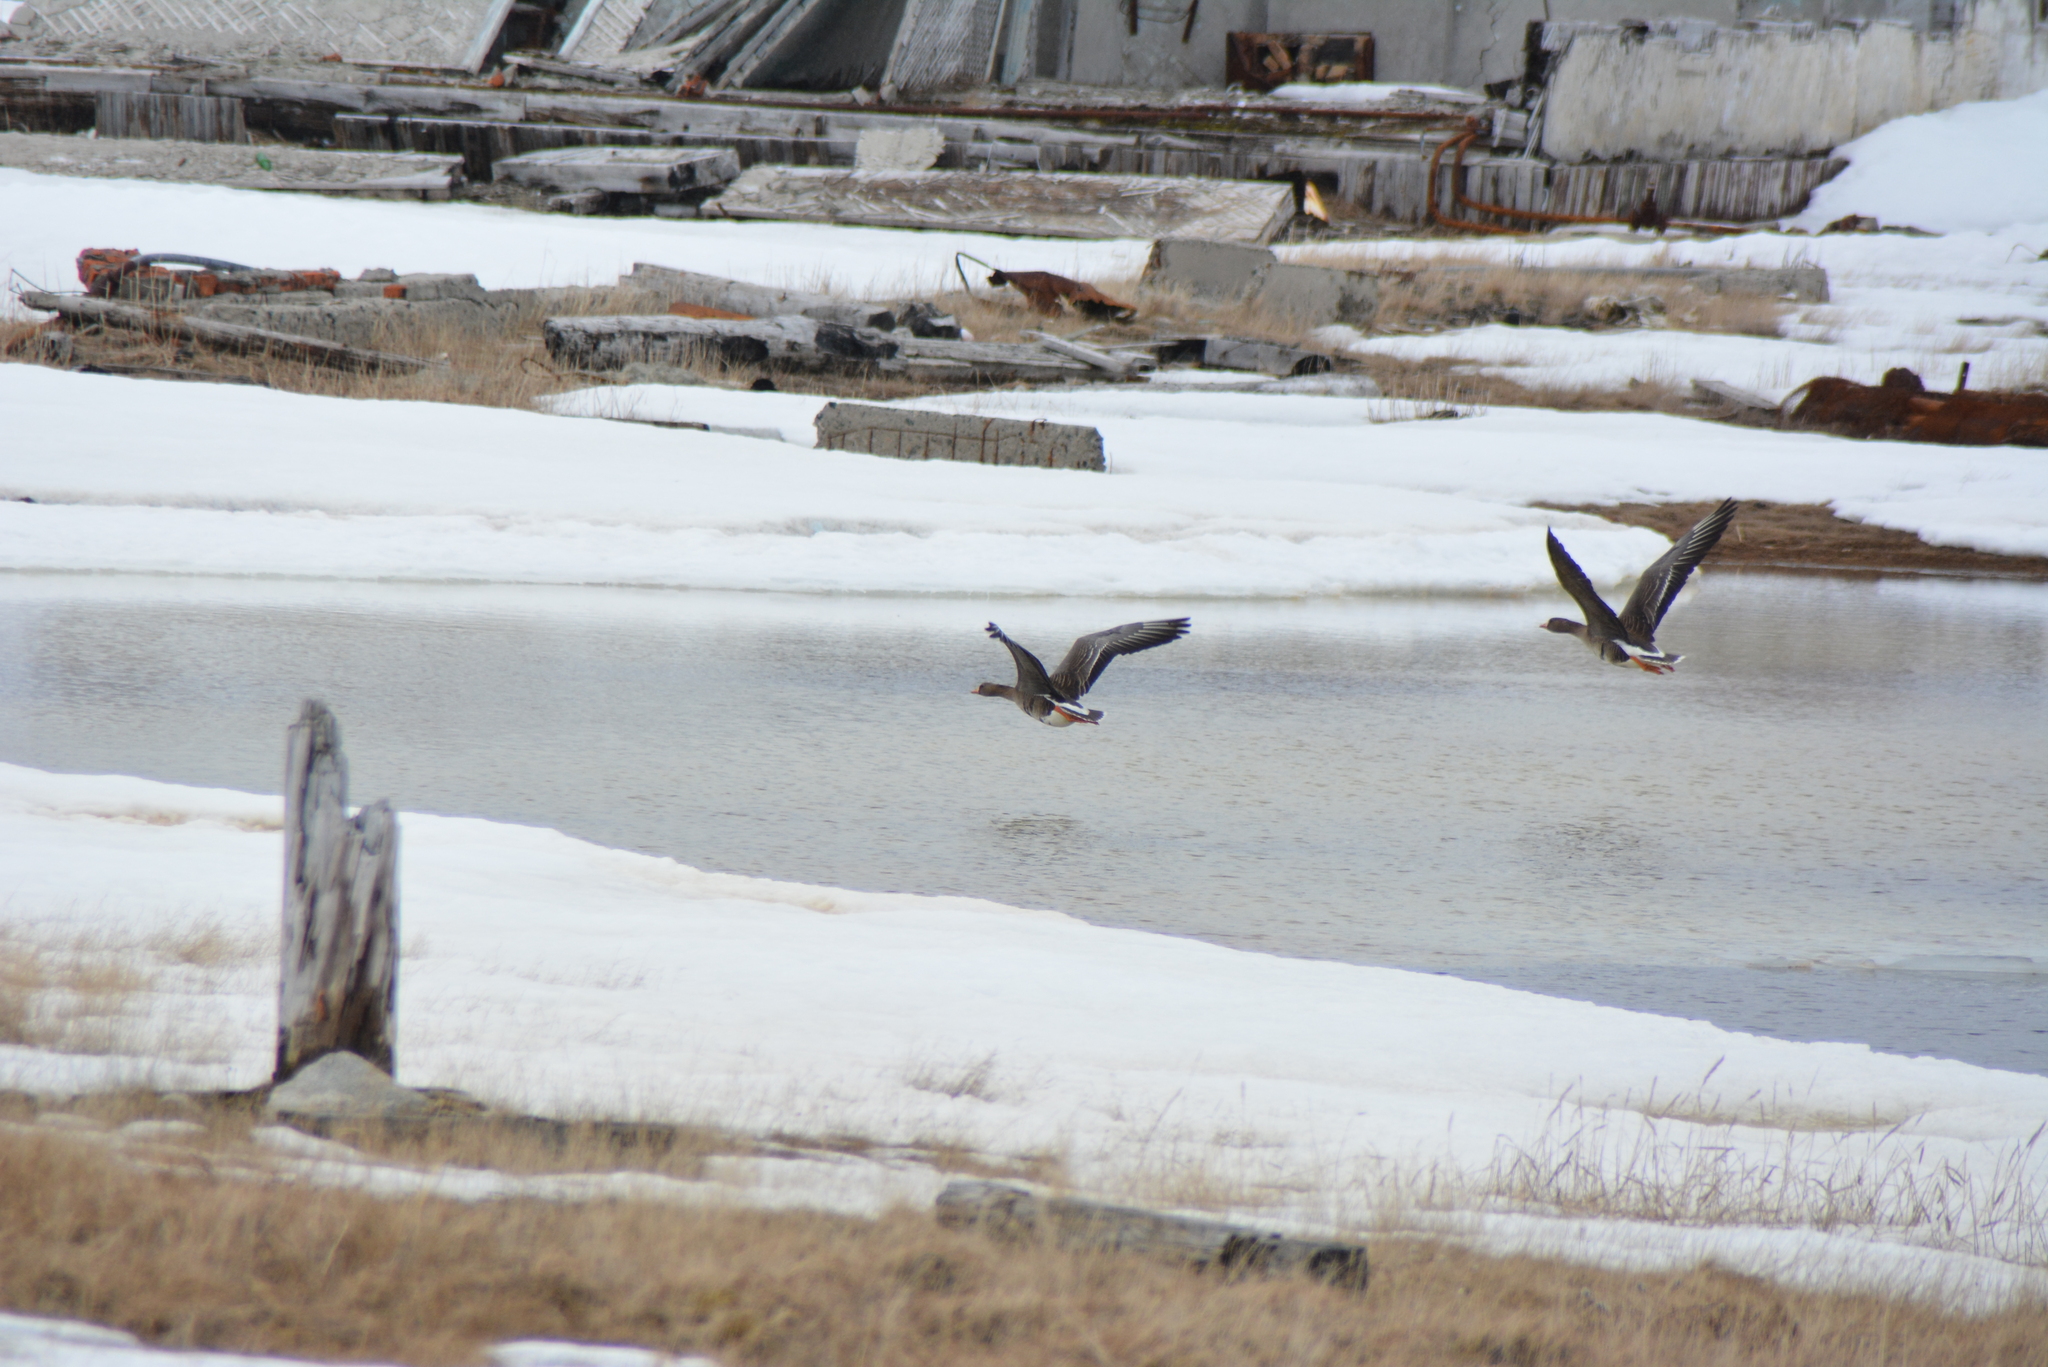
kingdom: Animalia
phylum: Chordata
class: Aves
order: Anseriformes
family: Anatidae
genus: Anser
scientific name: Anser albifrons
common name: Greater white-fronted goose
